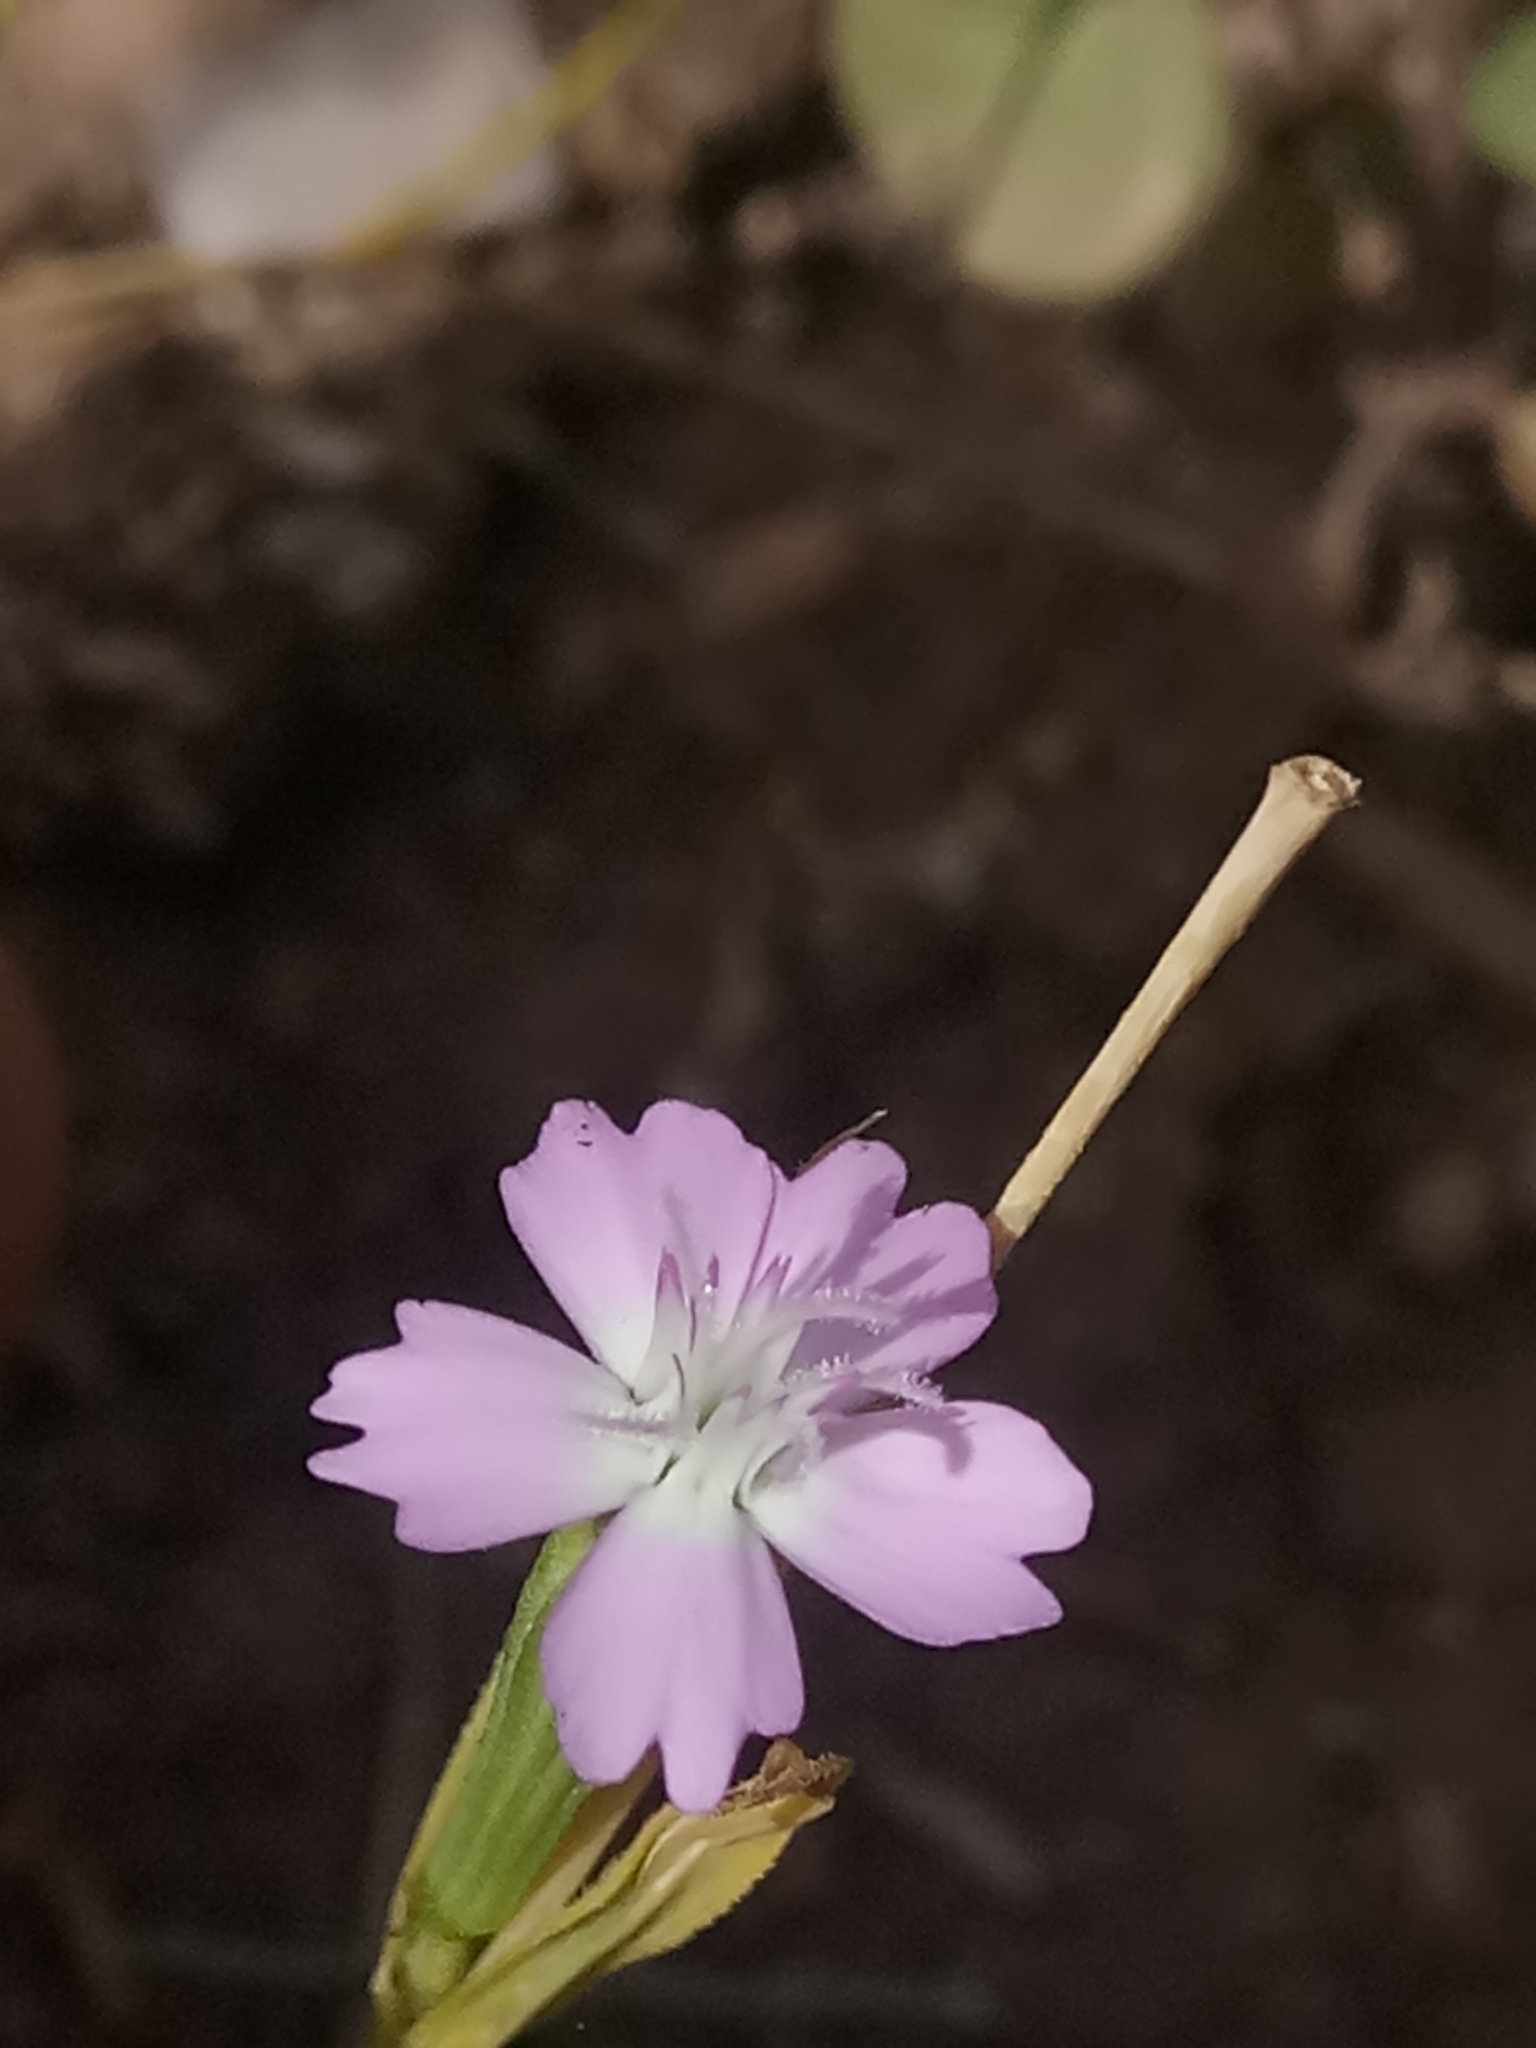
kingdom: Plantae
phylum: Tracheophyta
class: Magnoliopsida
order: Caryophyllales
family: Caryophyllaceae
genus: Eudianthe
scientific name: Eudianthe coeli-rosa
